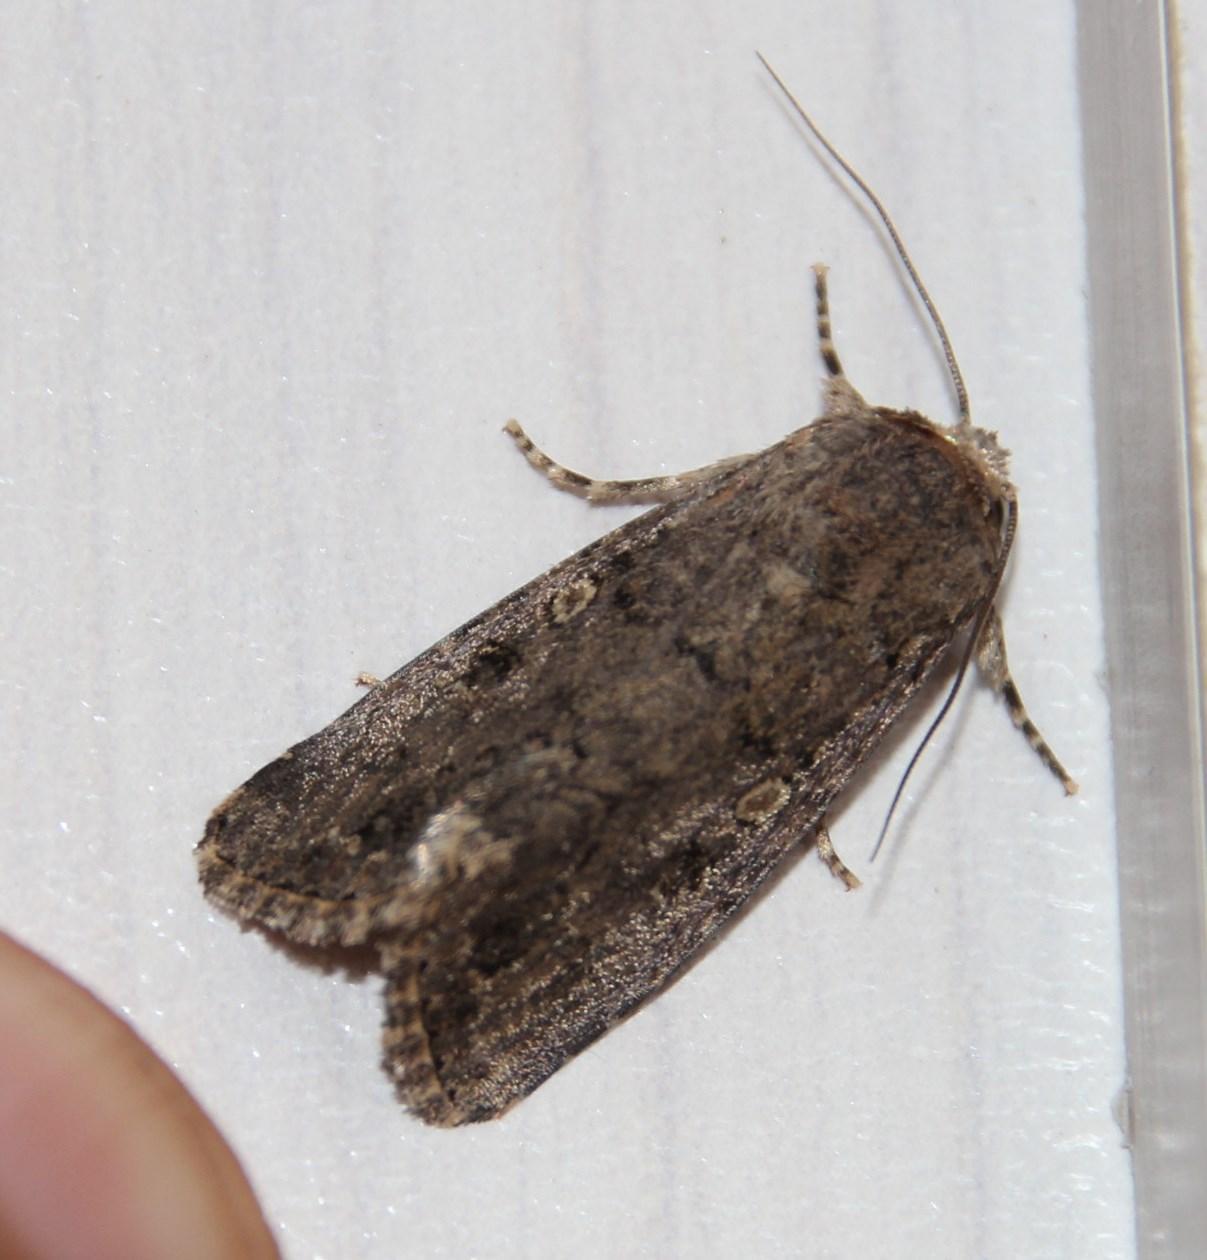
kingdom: Animalia
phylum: Arthropoda
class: Insecta
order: Lepidoptera
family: Noctuidae
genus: Spodoptera
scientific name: Spodoptera cilium
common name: Dark mottled willow
